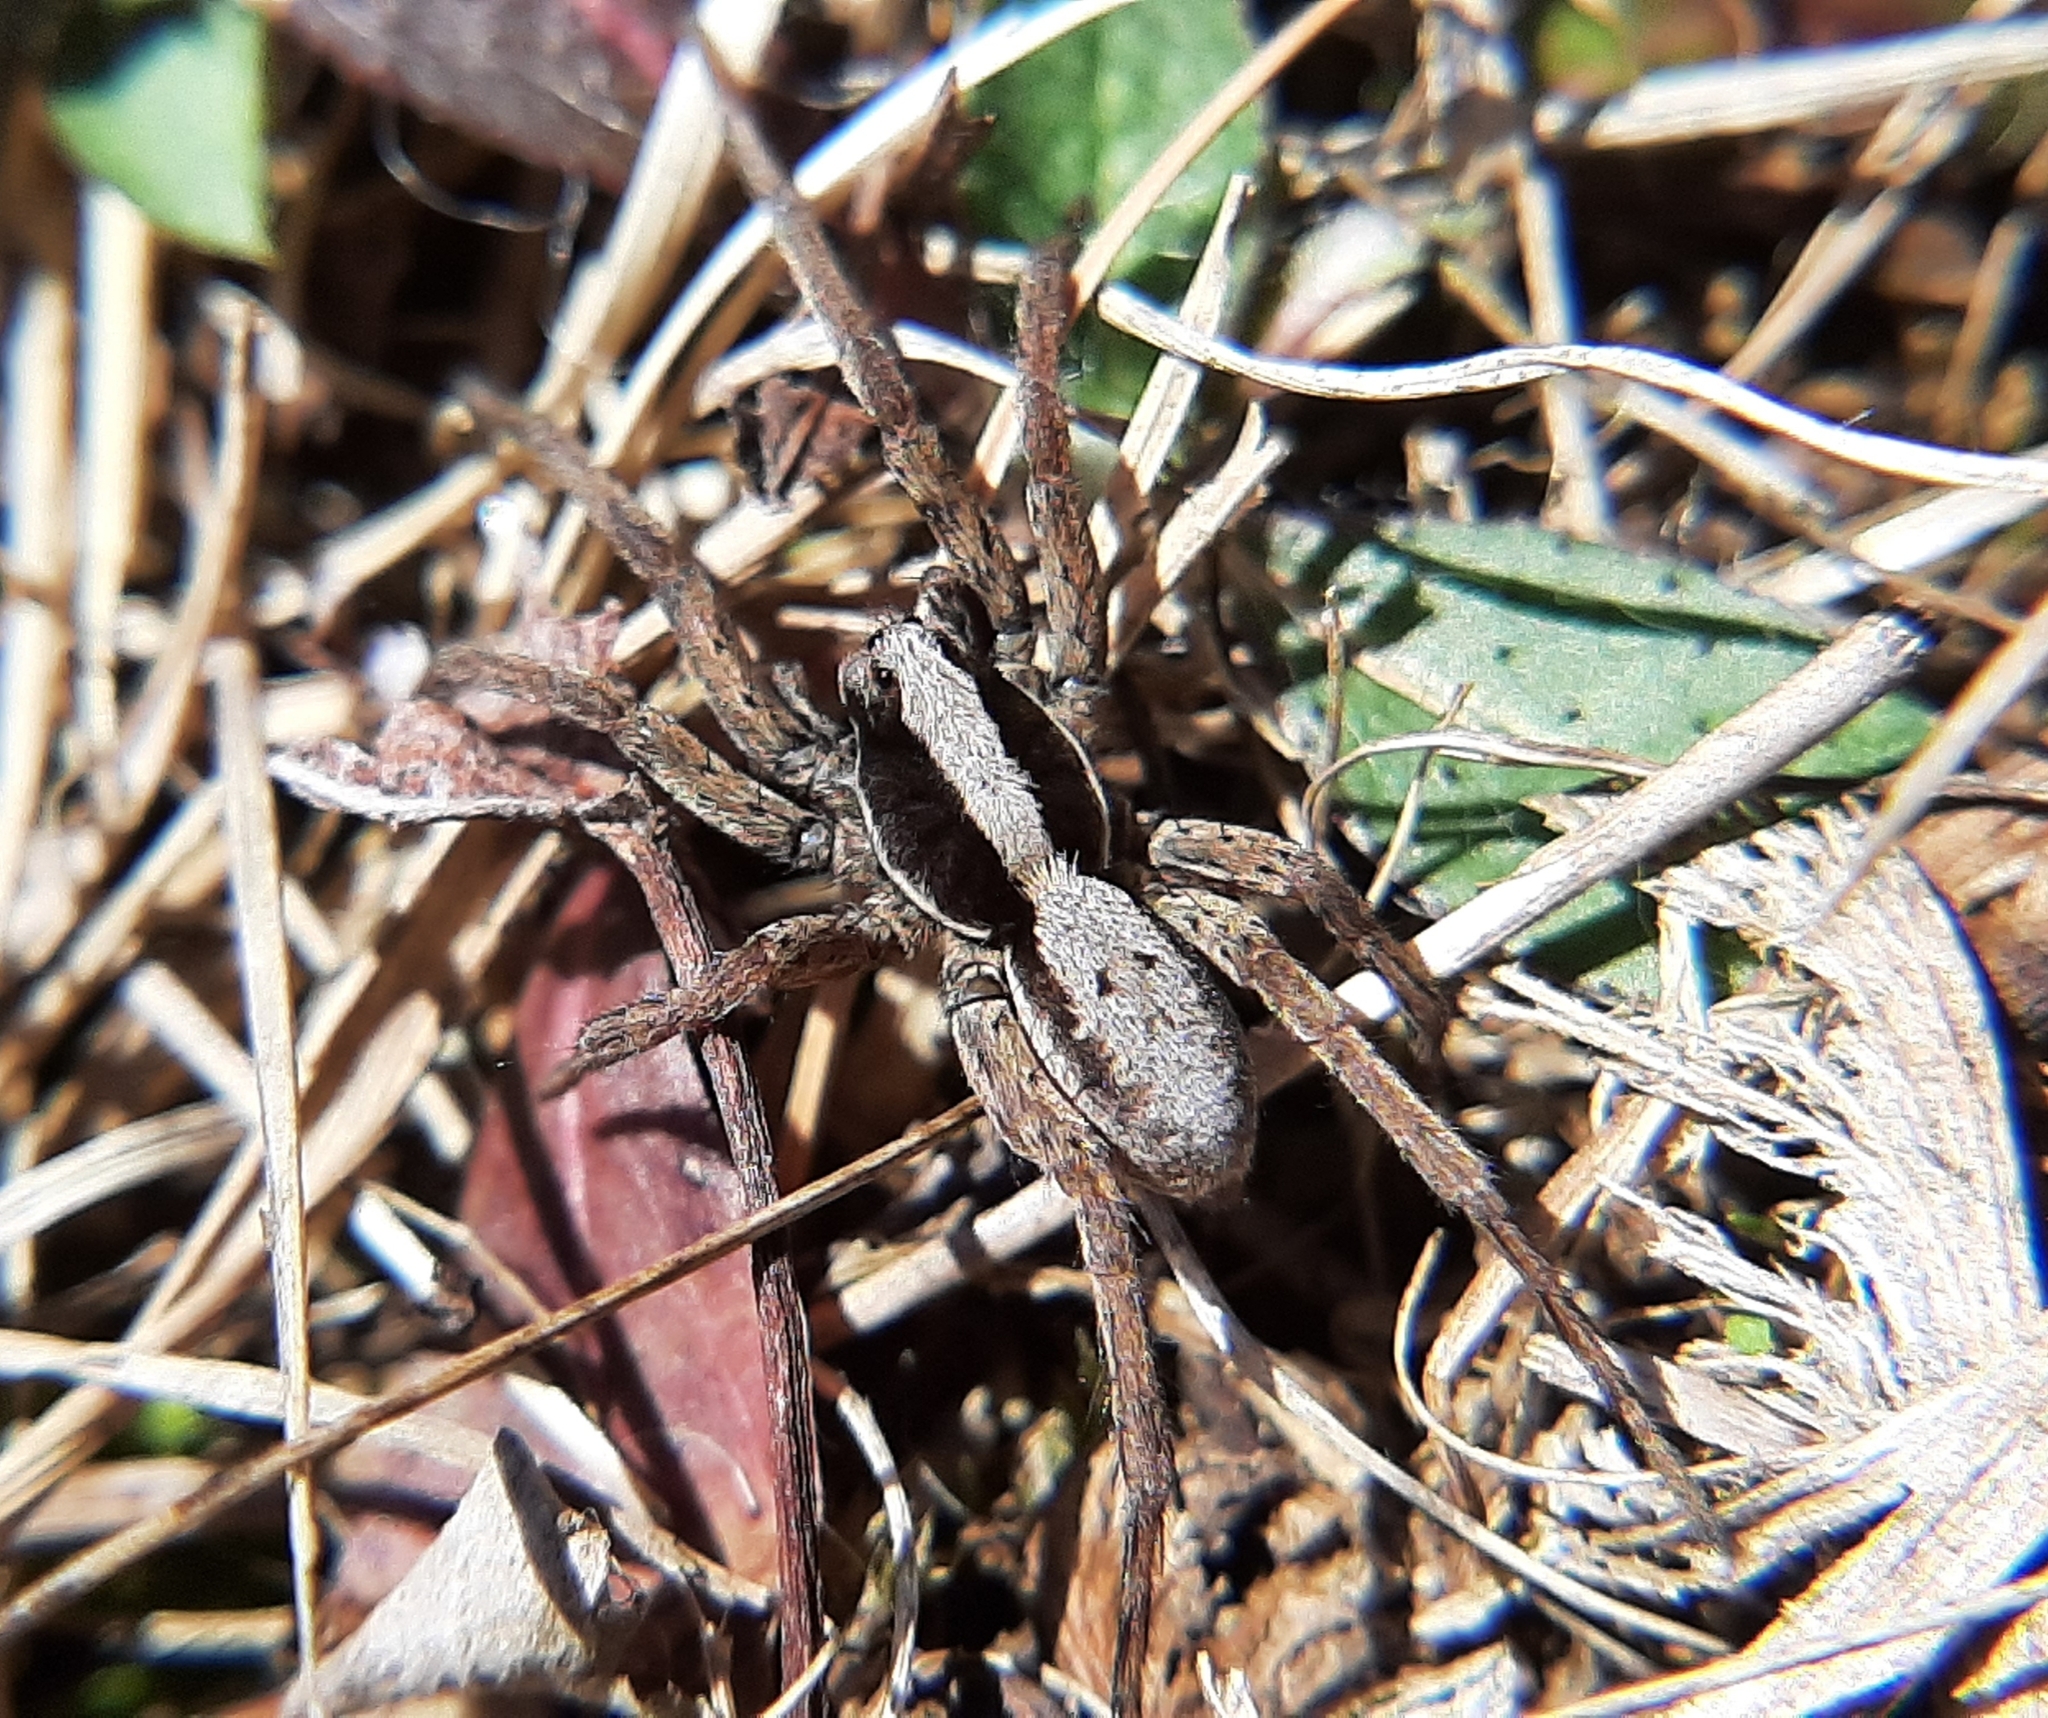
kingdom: Animalia
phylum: Arthropoda
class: Arachnida
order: Araneae
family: Lycosidae
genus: Hogna
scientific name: Hogna frondicola
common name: Forest wolf spider
